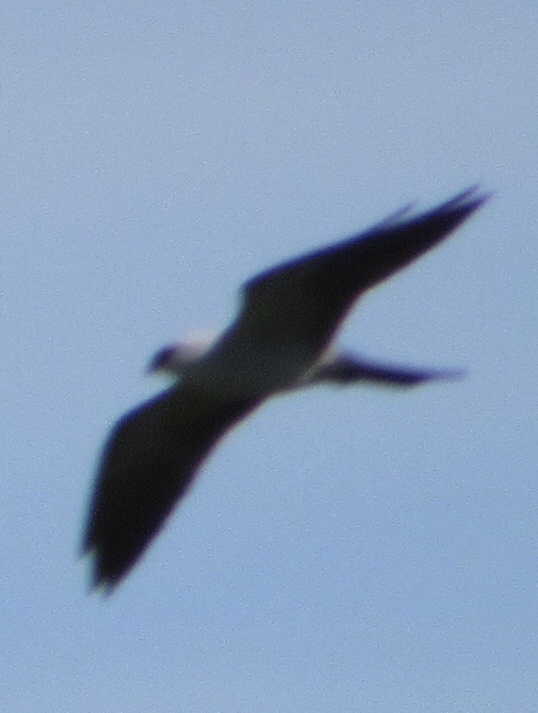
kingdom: Animalia
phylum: Chordata
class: Aves
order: Accipitriformes
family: Accipitridae
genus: Ictinia
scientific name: Ictinia mississippiensis
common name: Mississippi kite
